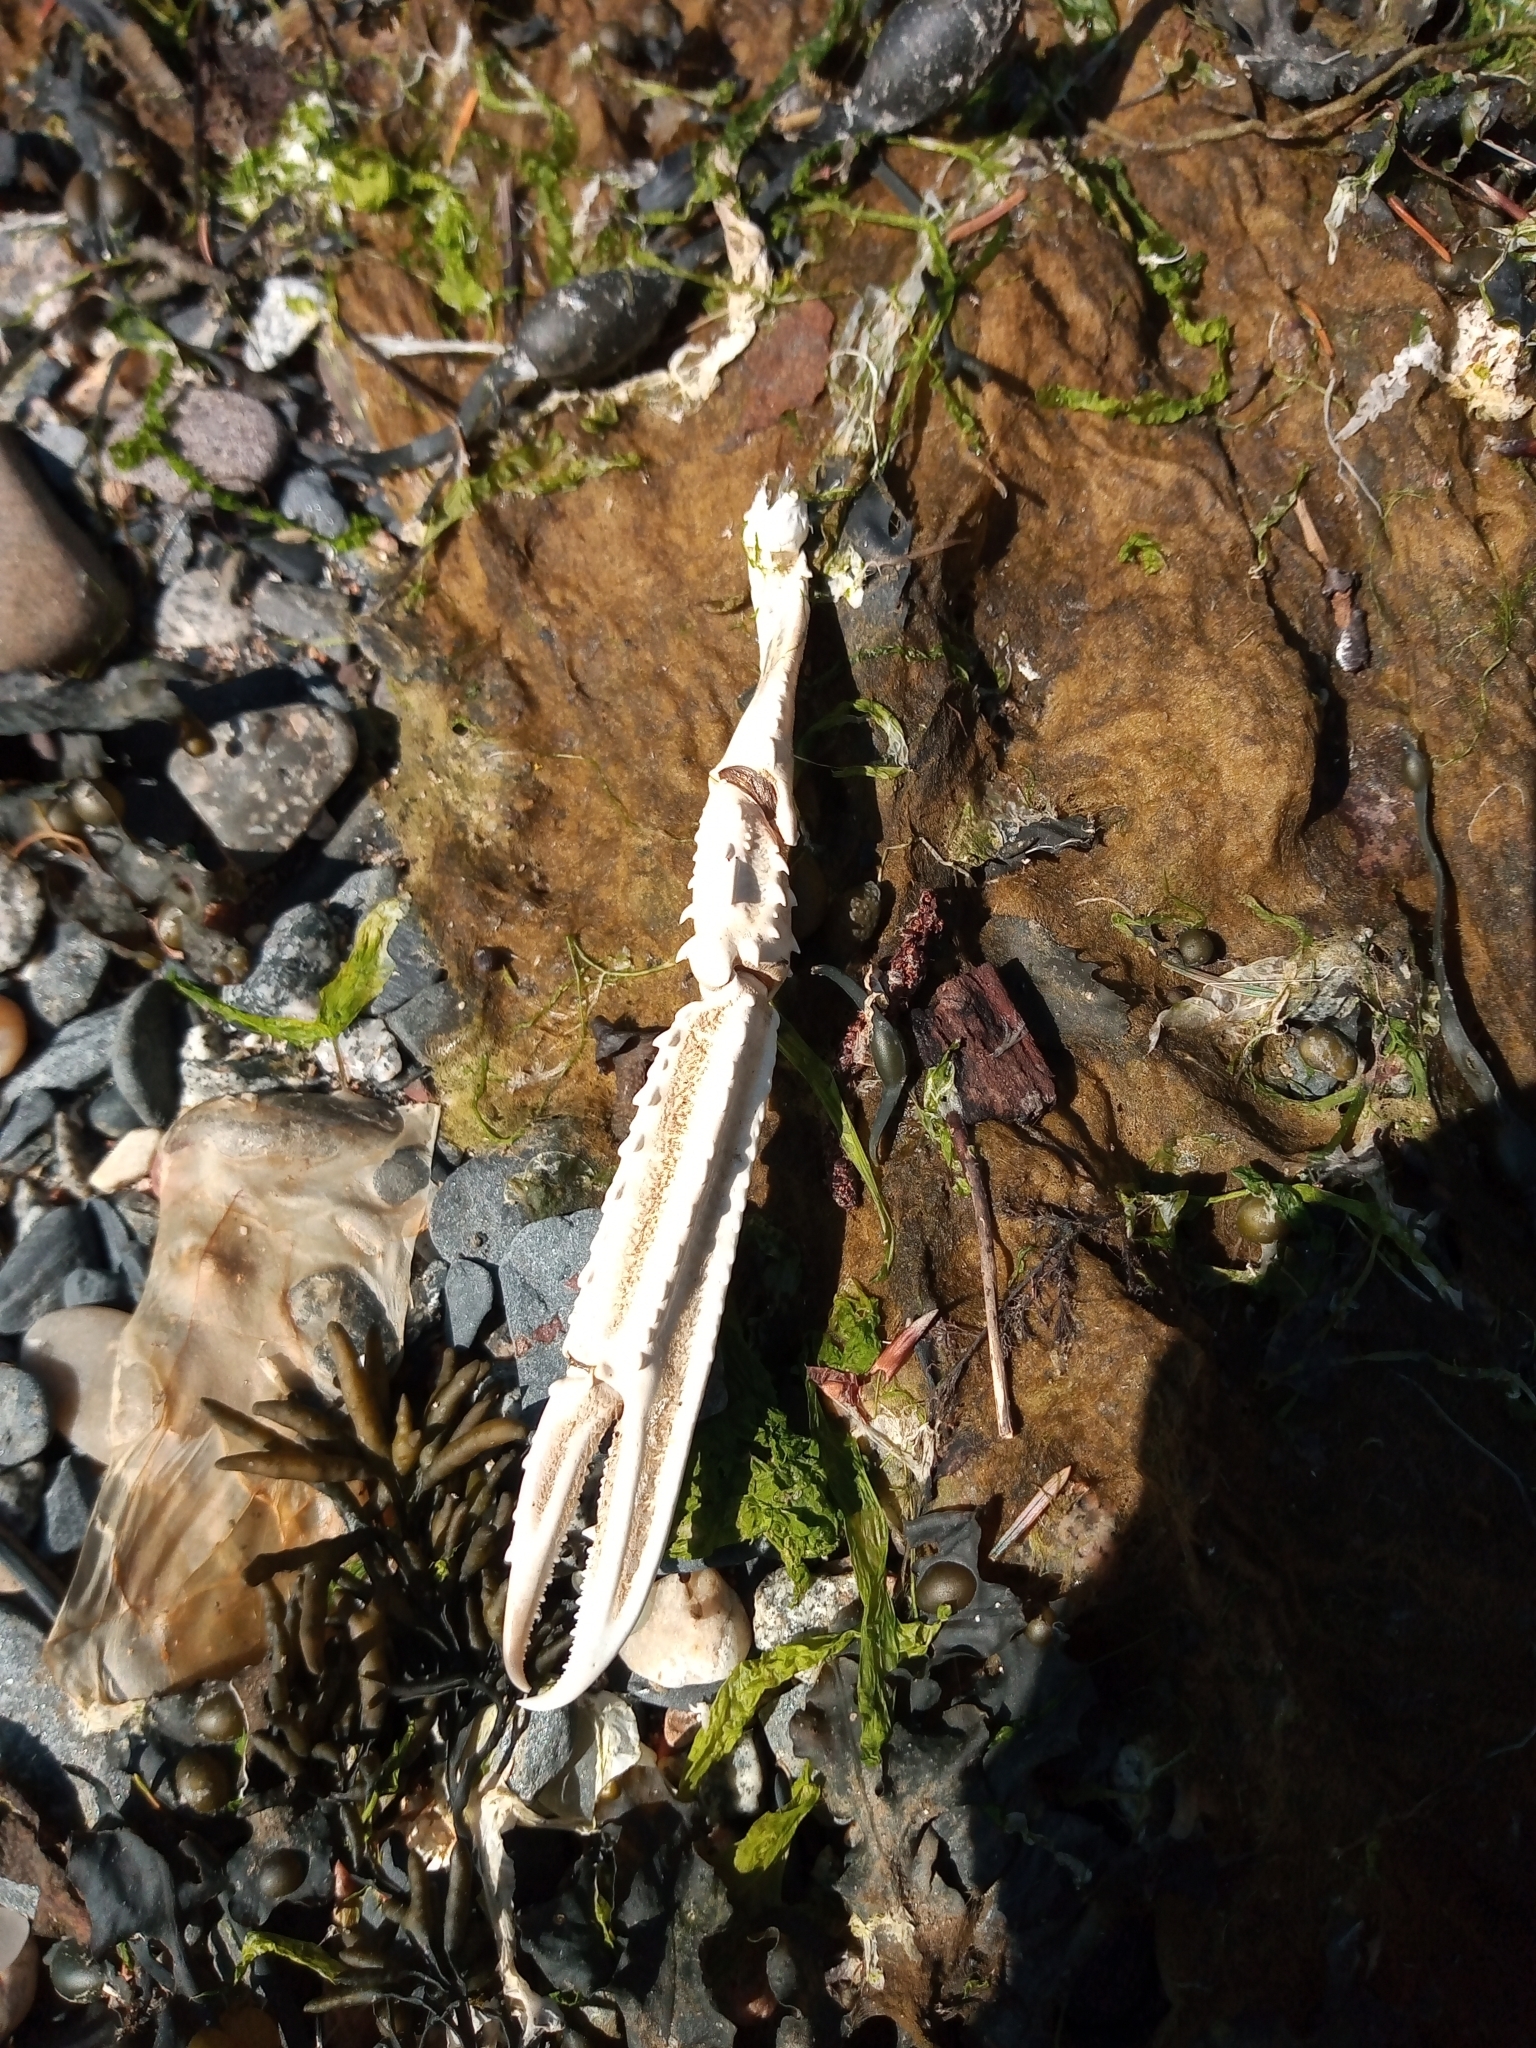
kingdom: Animalia
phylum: Arthropoda
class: Malacostraca
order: Decapoda
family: Nephropidae
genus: Nephrops
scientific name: Nephrops norvegicus
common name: Norway lobster
